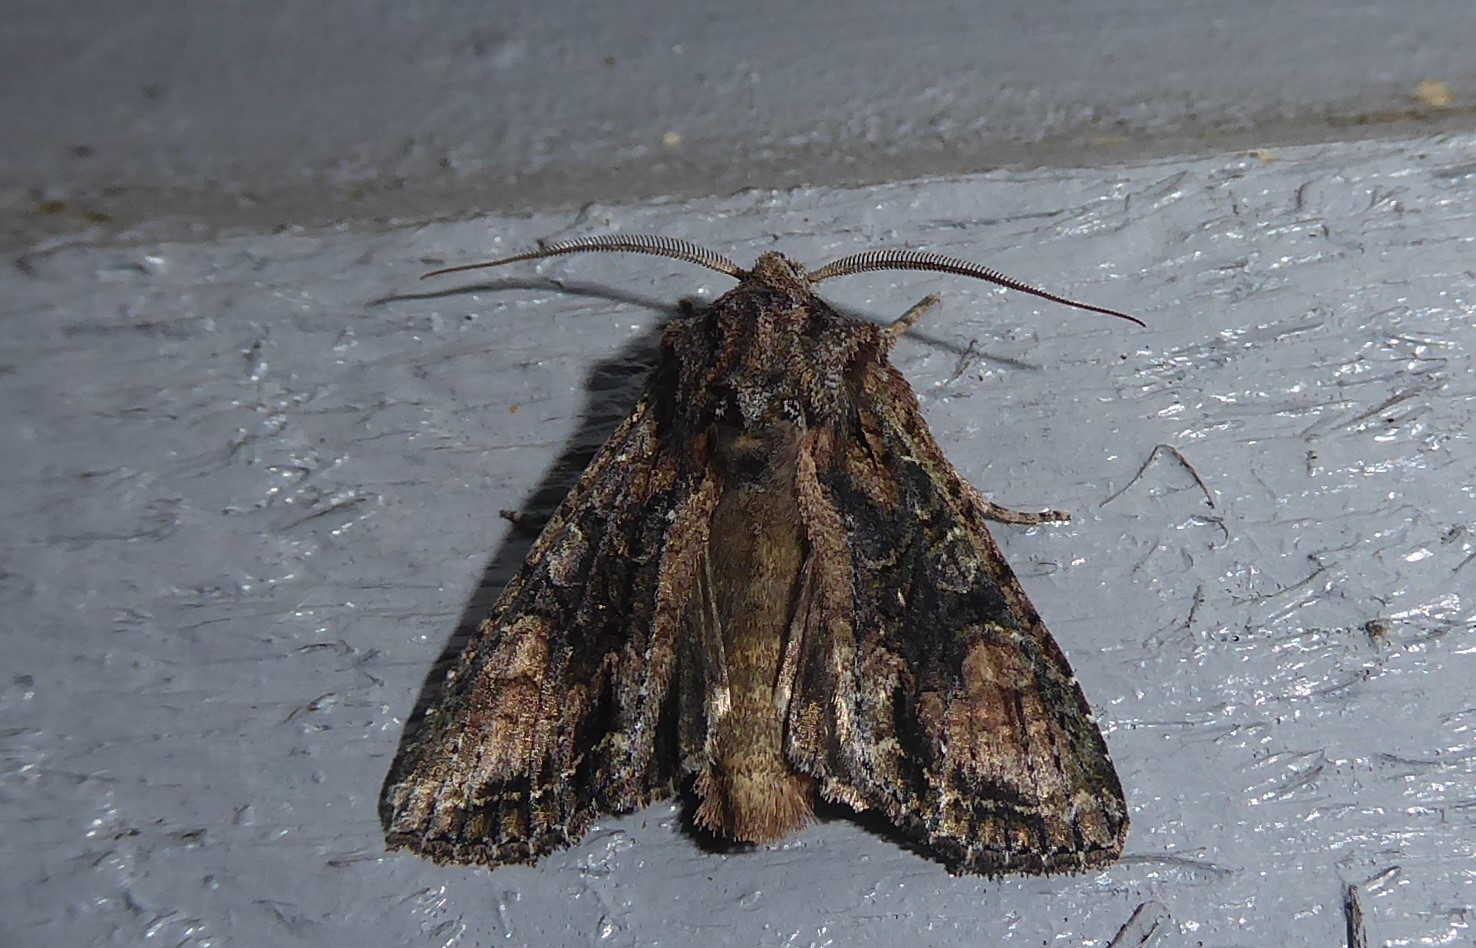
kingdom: Animalia
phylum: Arthropoda
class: Insecta
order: Lepidoptera
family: Noctuidae
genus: Ichneutica
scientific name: Ichneutica mutans
